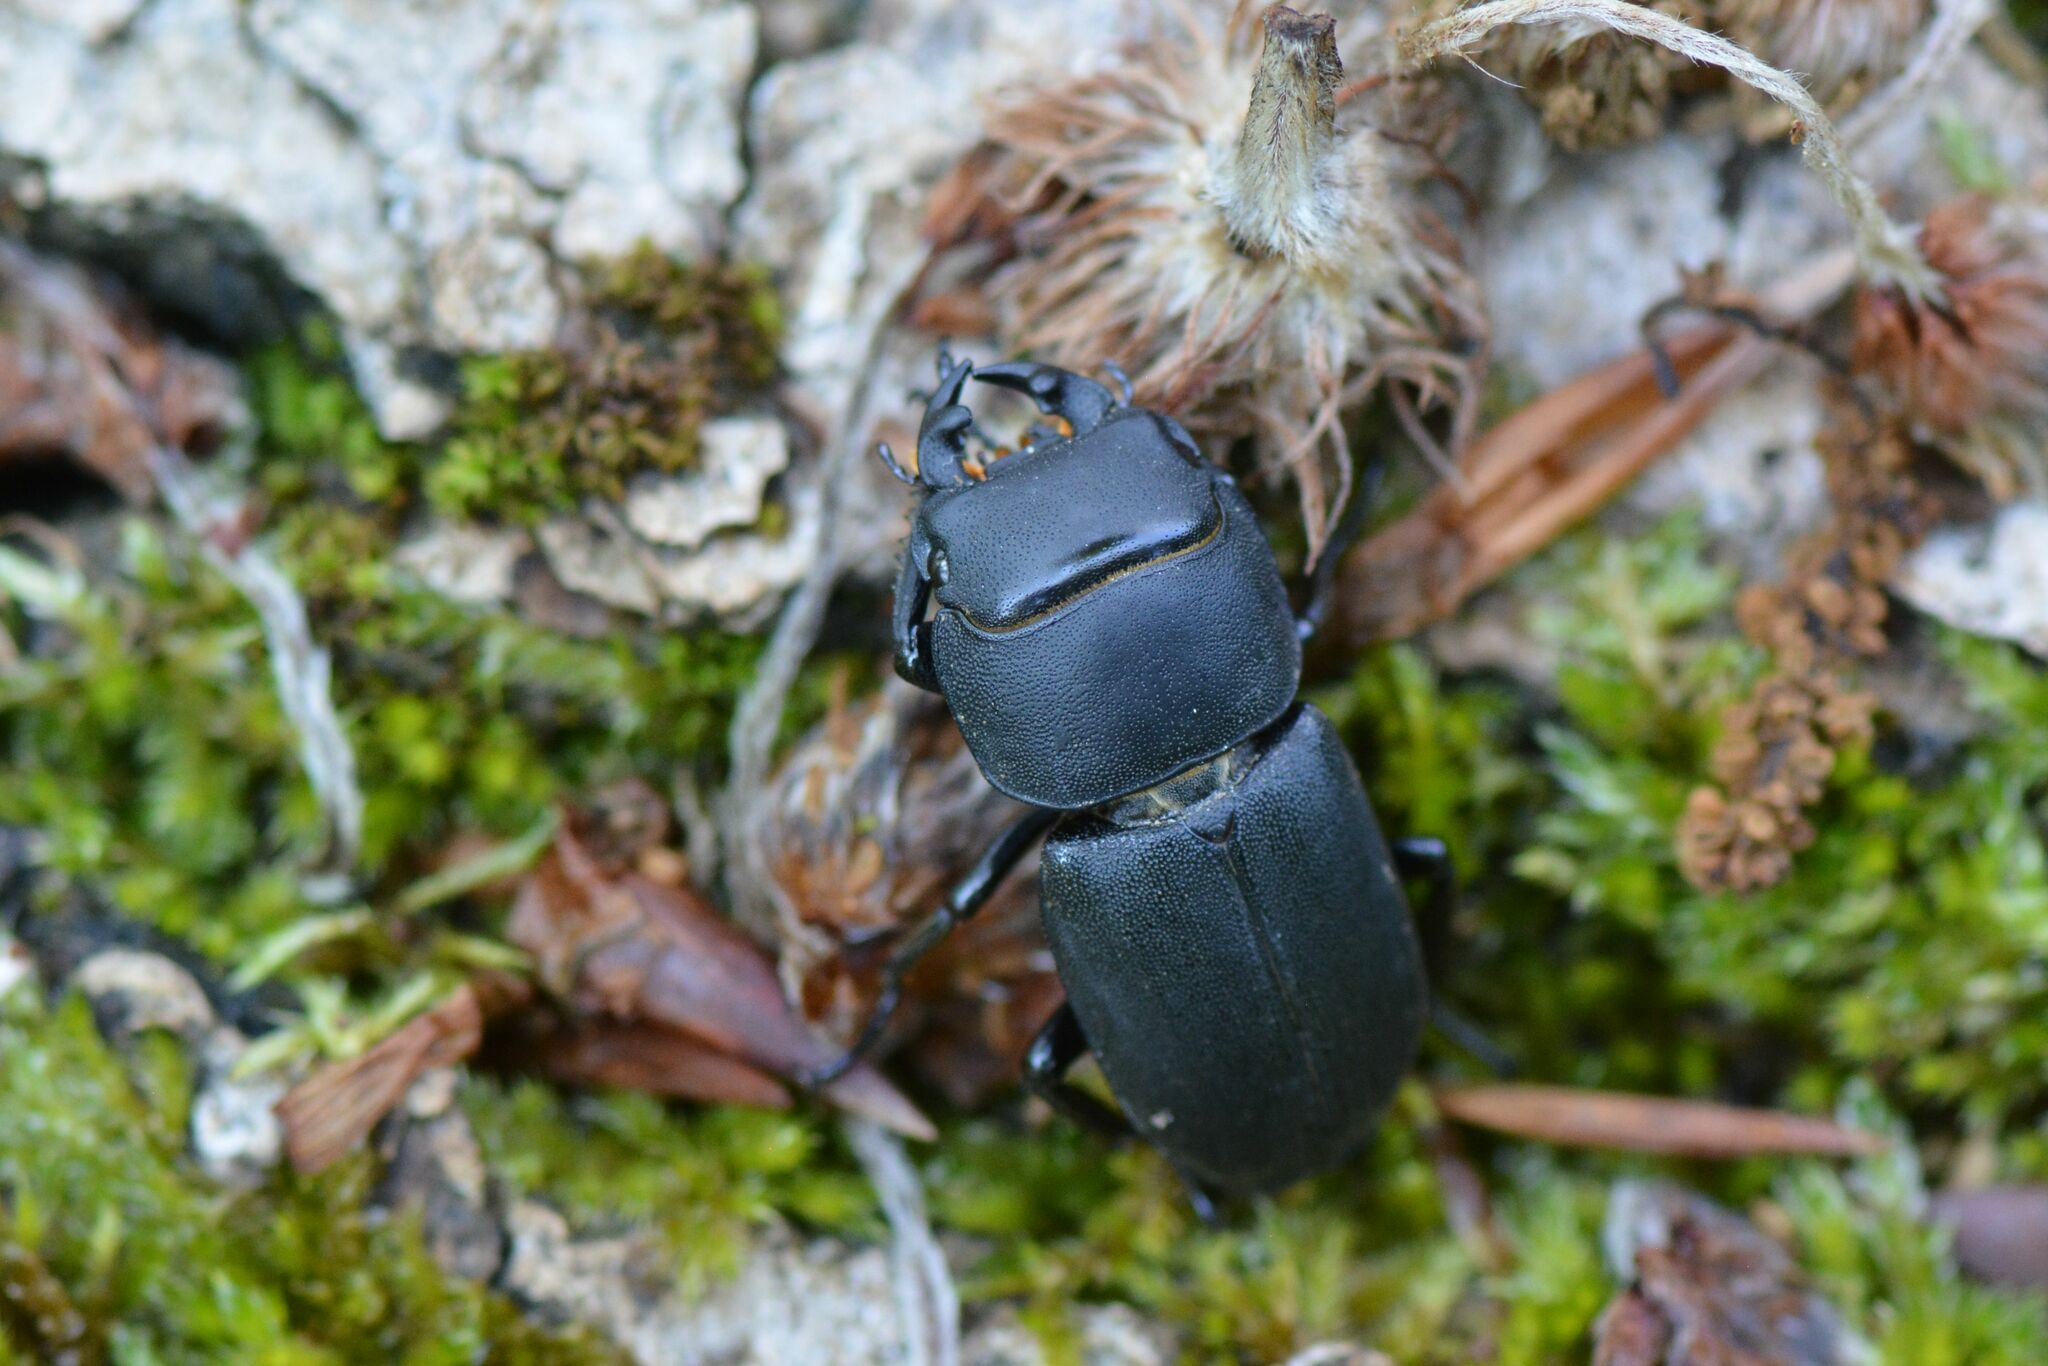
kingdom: Animalia
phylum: Arthropoda
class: Insecta
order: Coleoptera
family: Lucanidae
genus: Dorcus
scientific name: Dorcus parallelipipedus
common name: Lesser stag beetle
